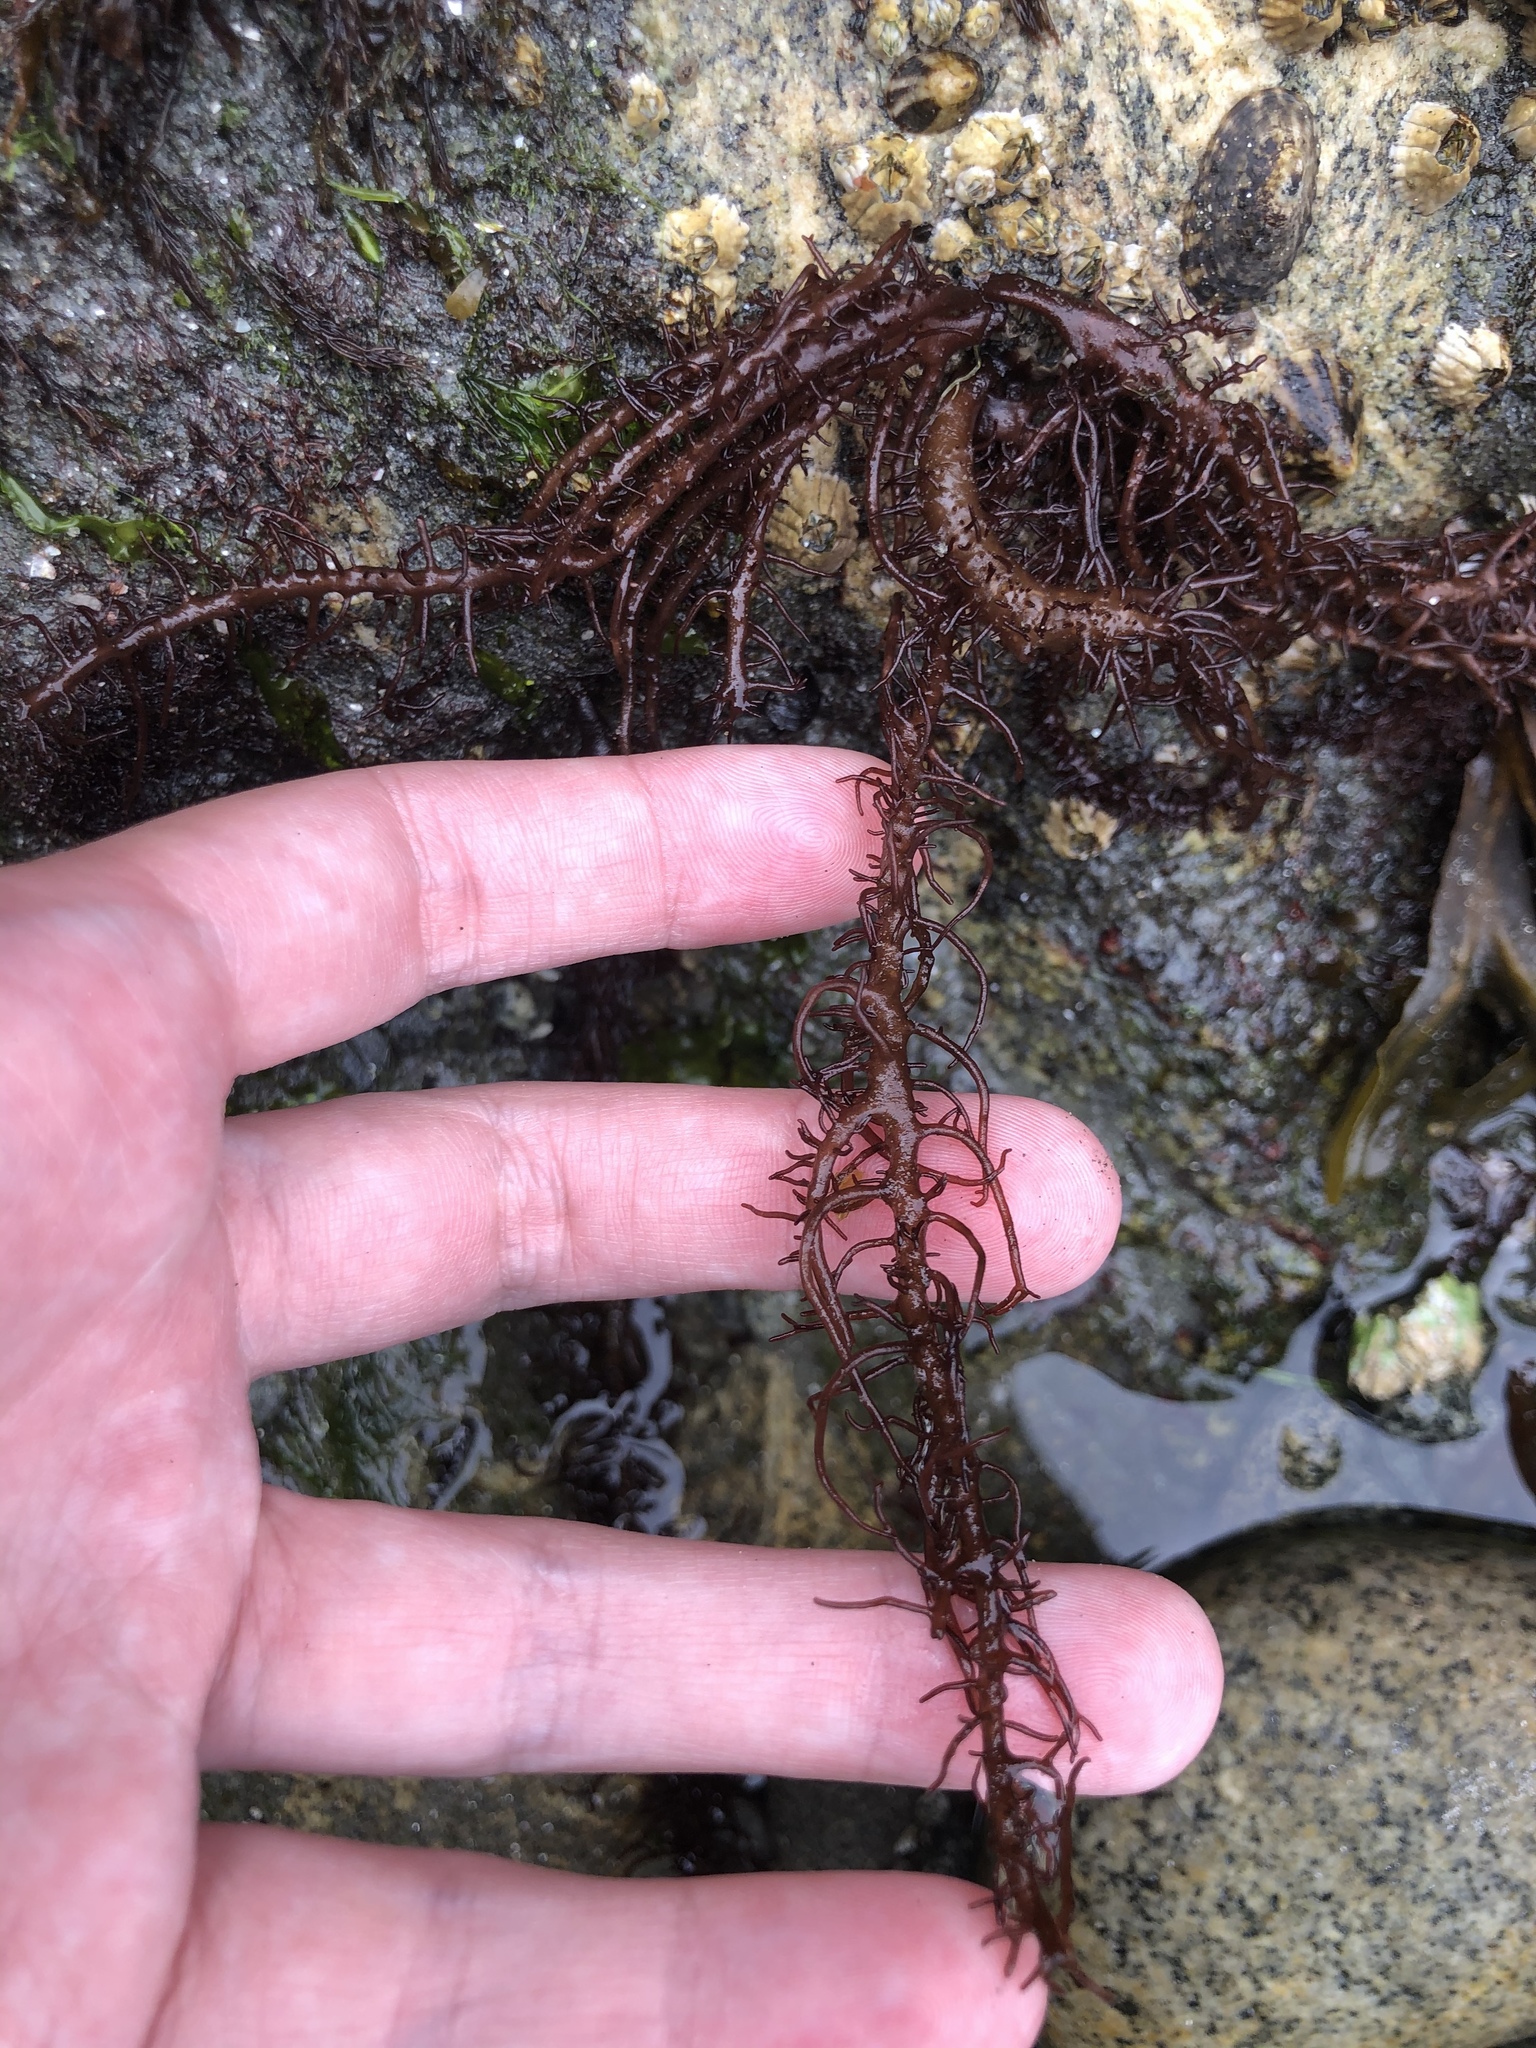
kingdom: Plantae
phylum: Rhodophyta
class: Florideophyceae
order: Nemaliales
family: Liagoraceae
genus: Cumagloia
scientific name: Cumagloia andersonii
